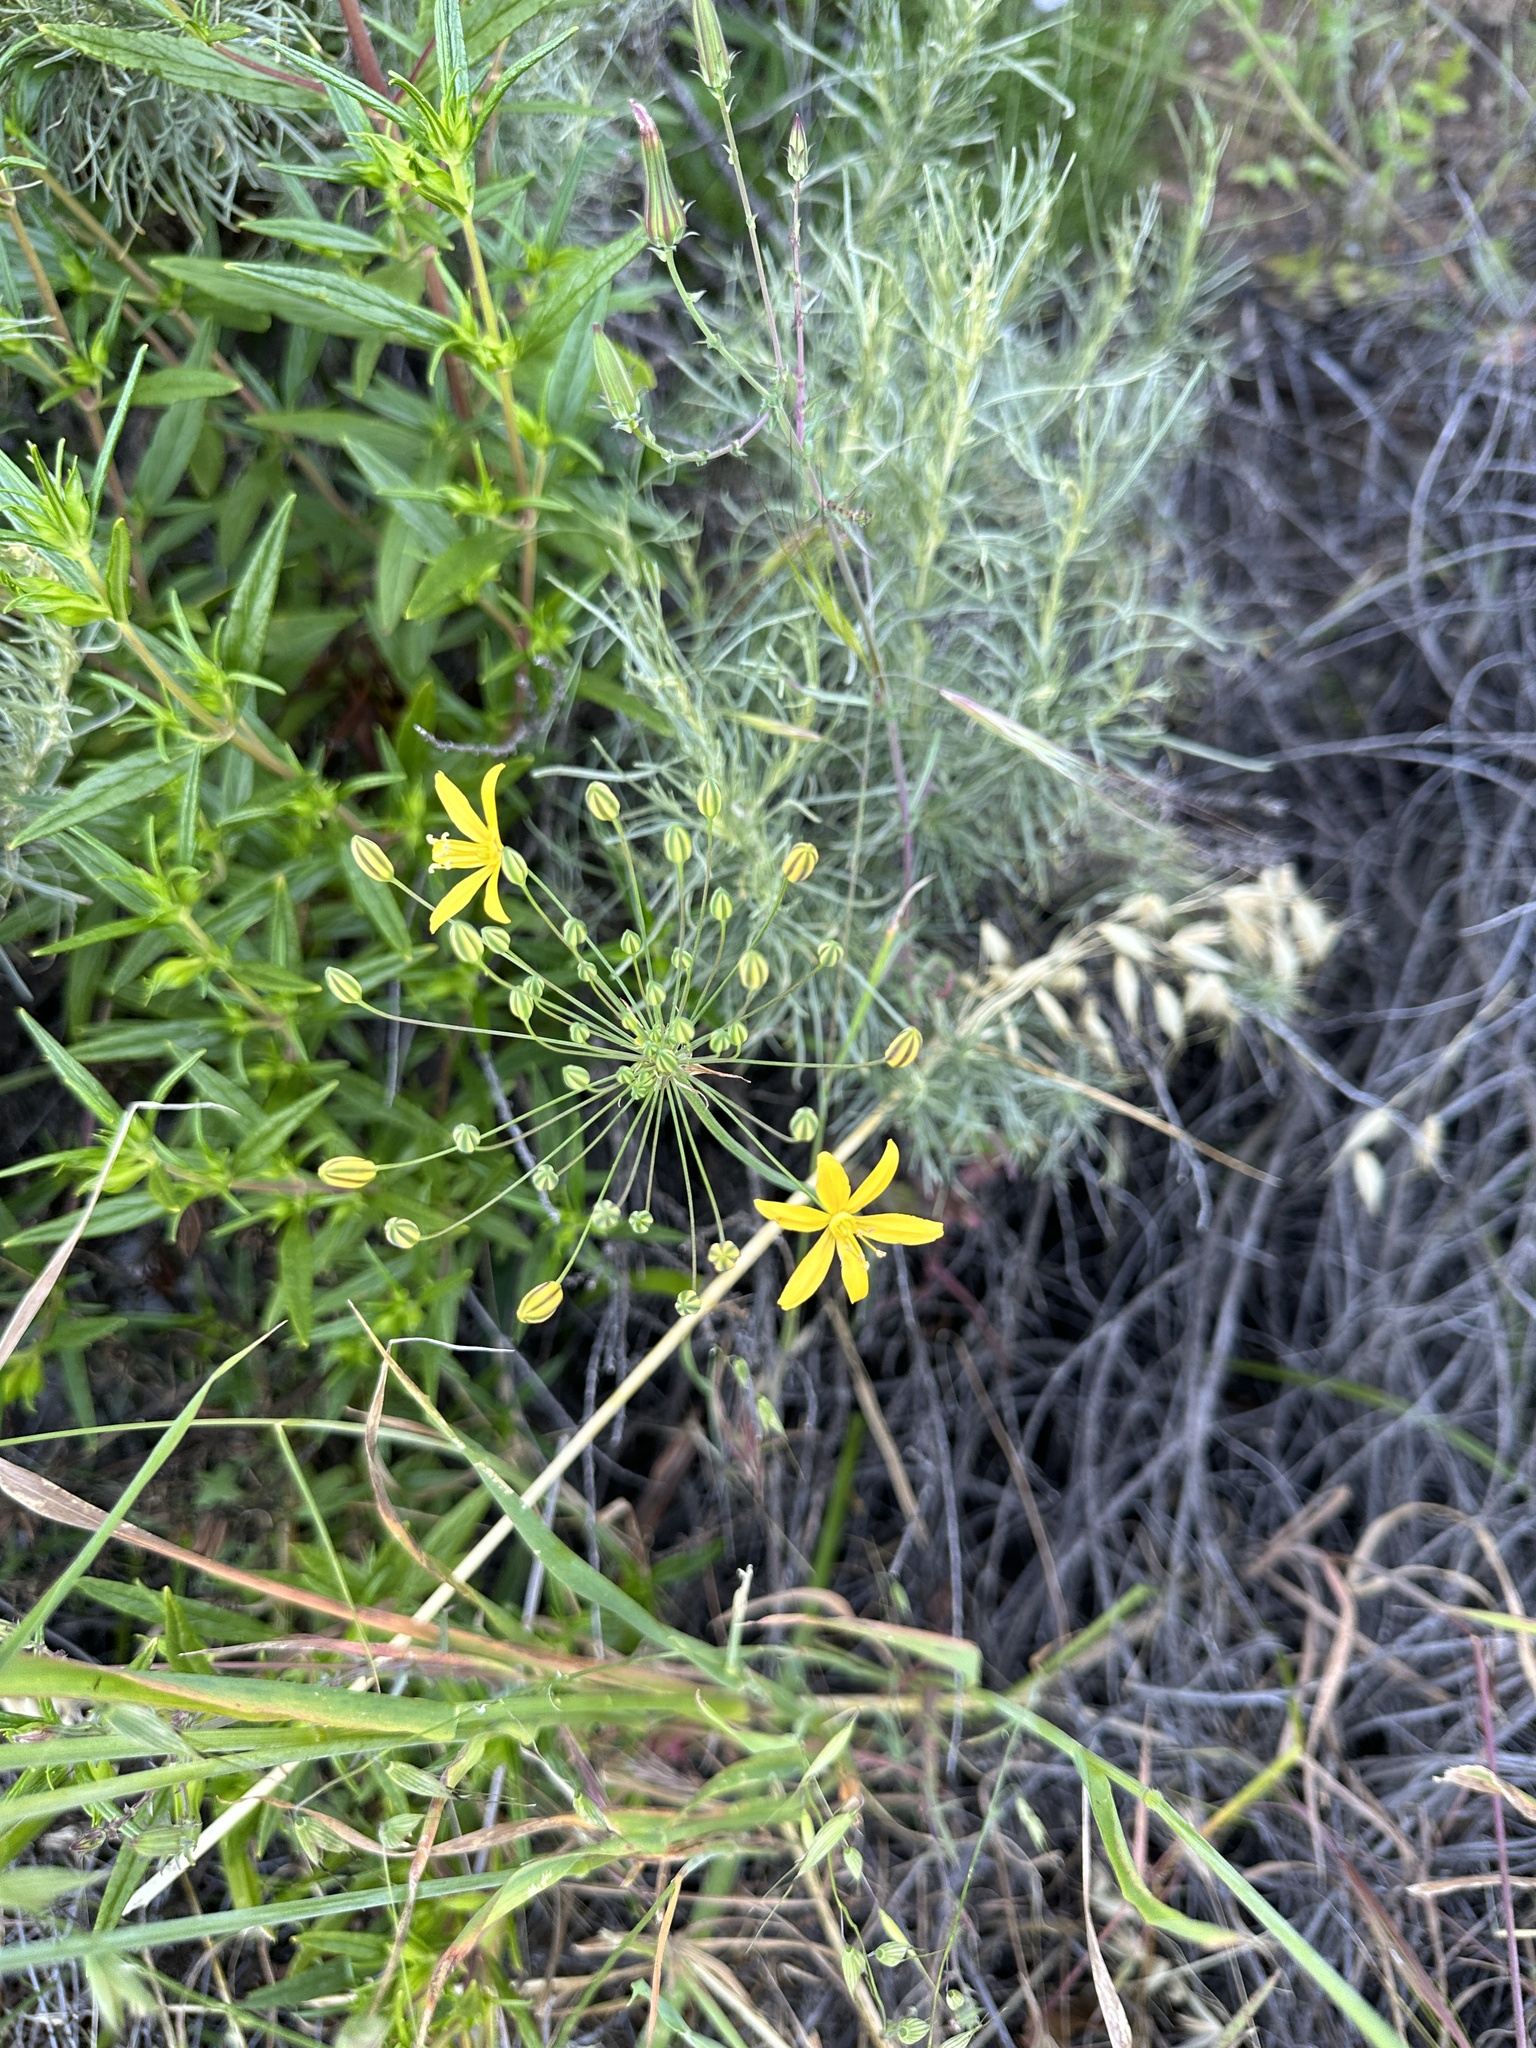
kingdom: Plantae
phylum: Tracheophyta
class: Liliopsida
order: Asparagales
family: Asparagaceae
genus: Bloomeria
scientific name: Bloomeria crocea
